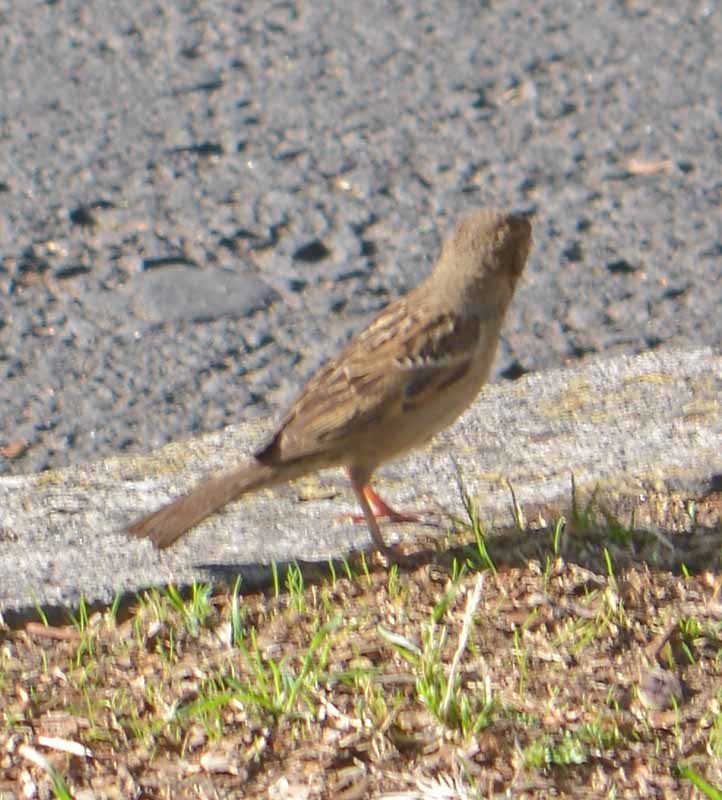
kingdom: Animalia
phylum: Chordata
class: Aves
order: Passeriformes
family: Passeridae
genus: Passer
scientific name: Passer domesticus
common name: House sparrow
